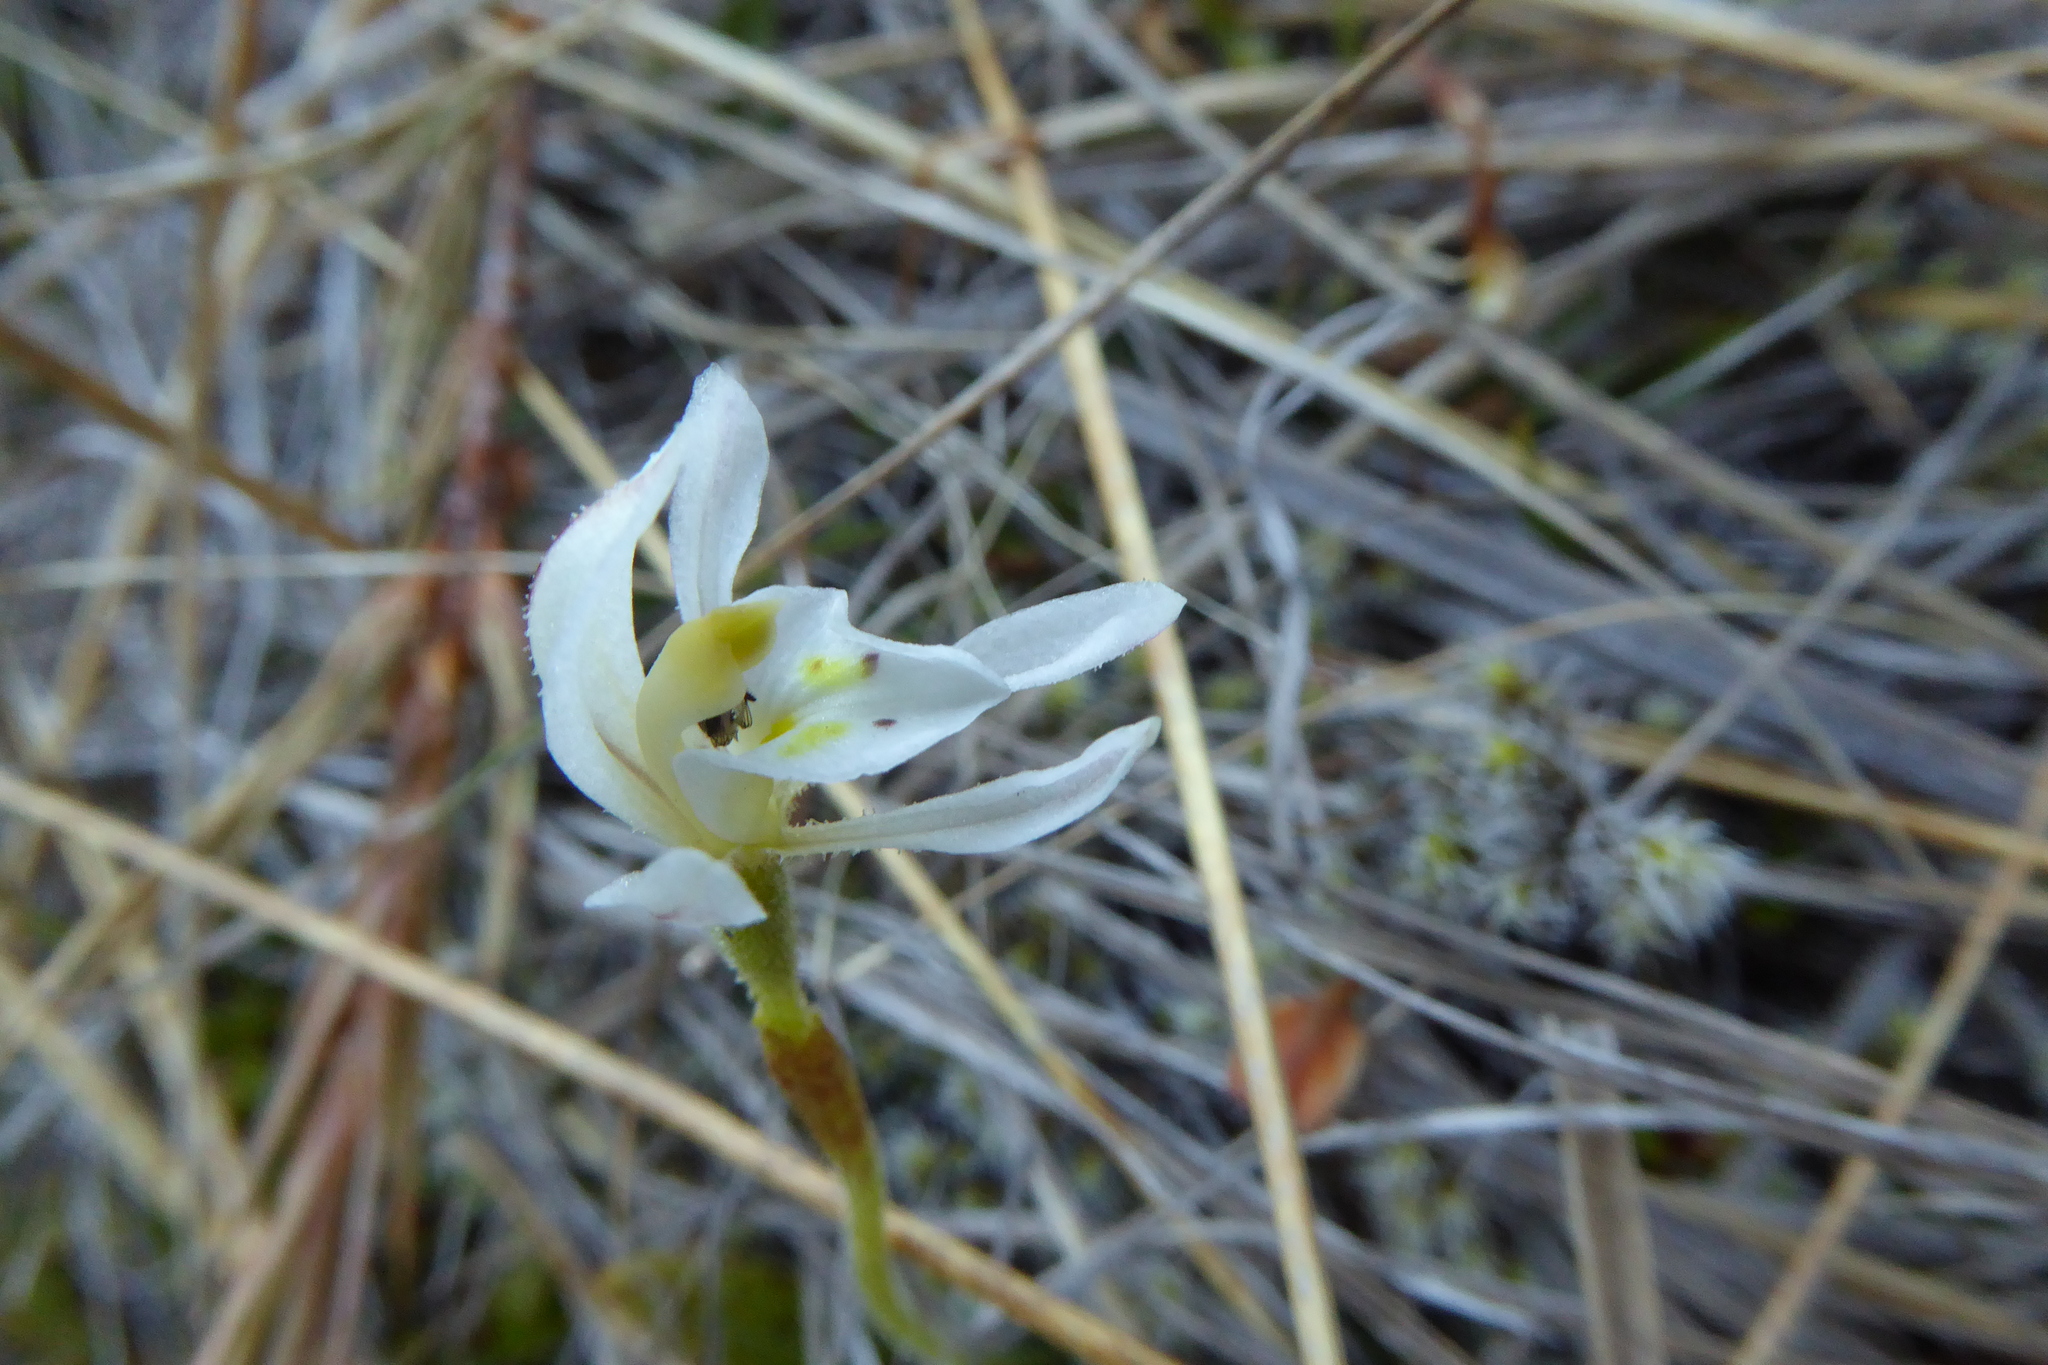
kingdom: Plantae
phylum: Tracheophyta
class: Liliopsida
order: Asparagales
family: Orchidaceae
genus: Aporostylis
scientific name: Aporostylis bifolia
